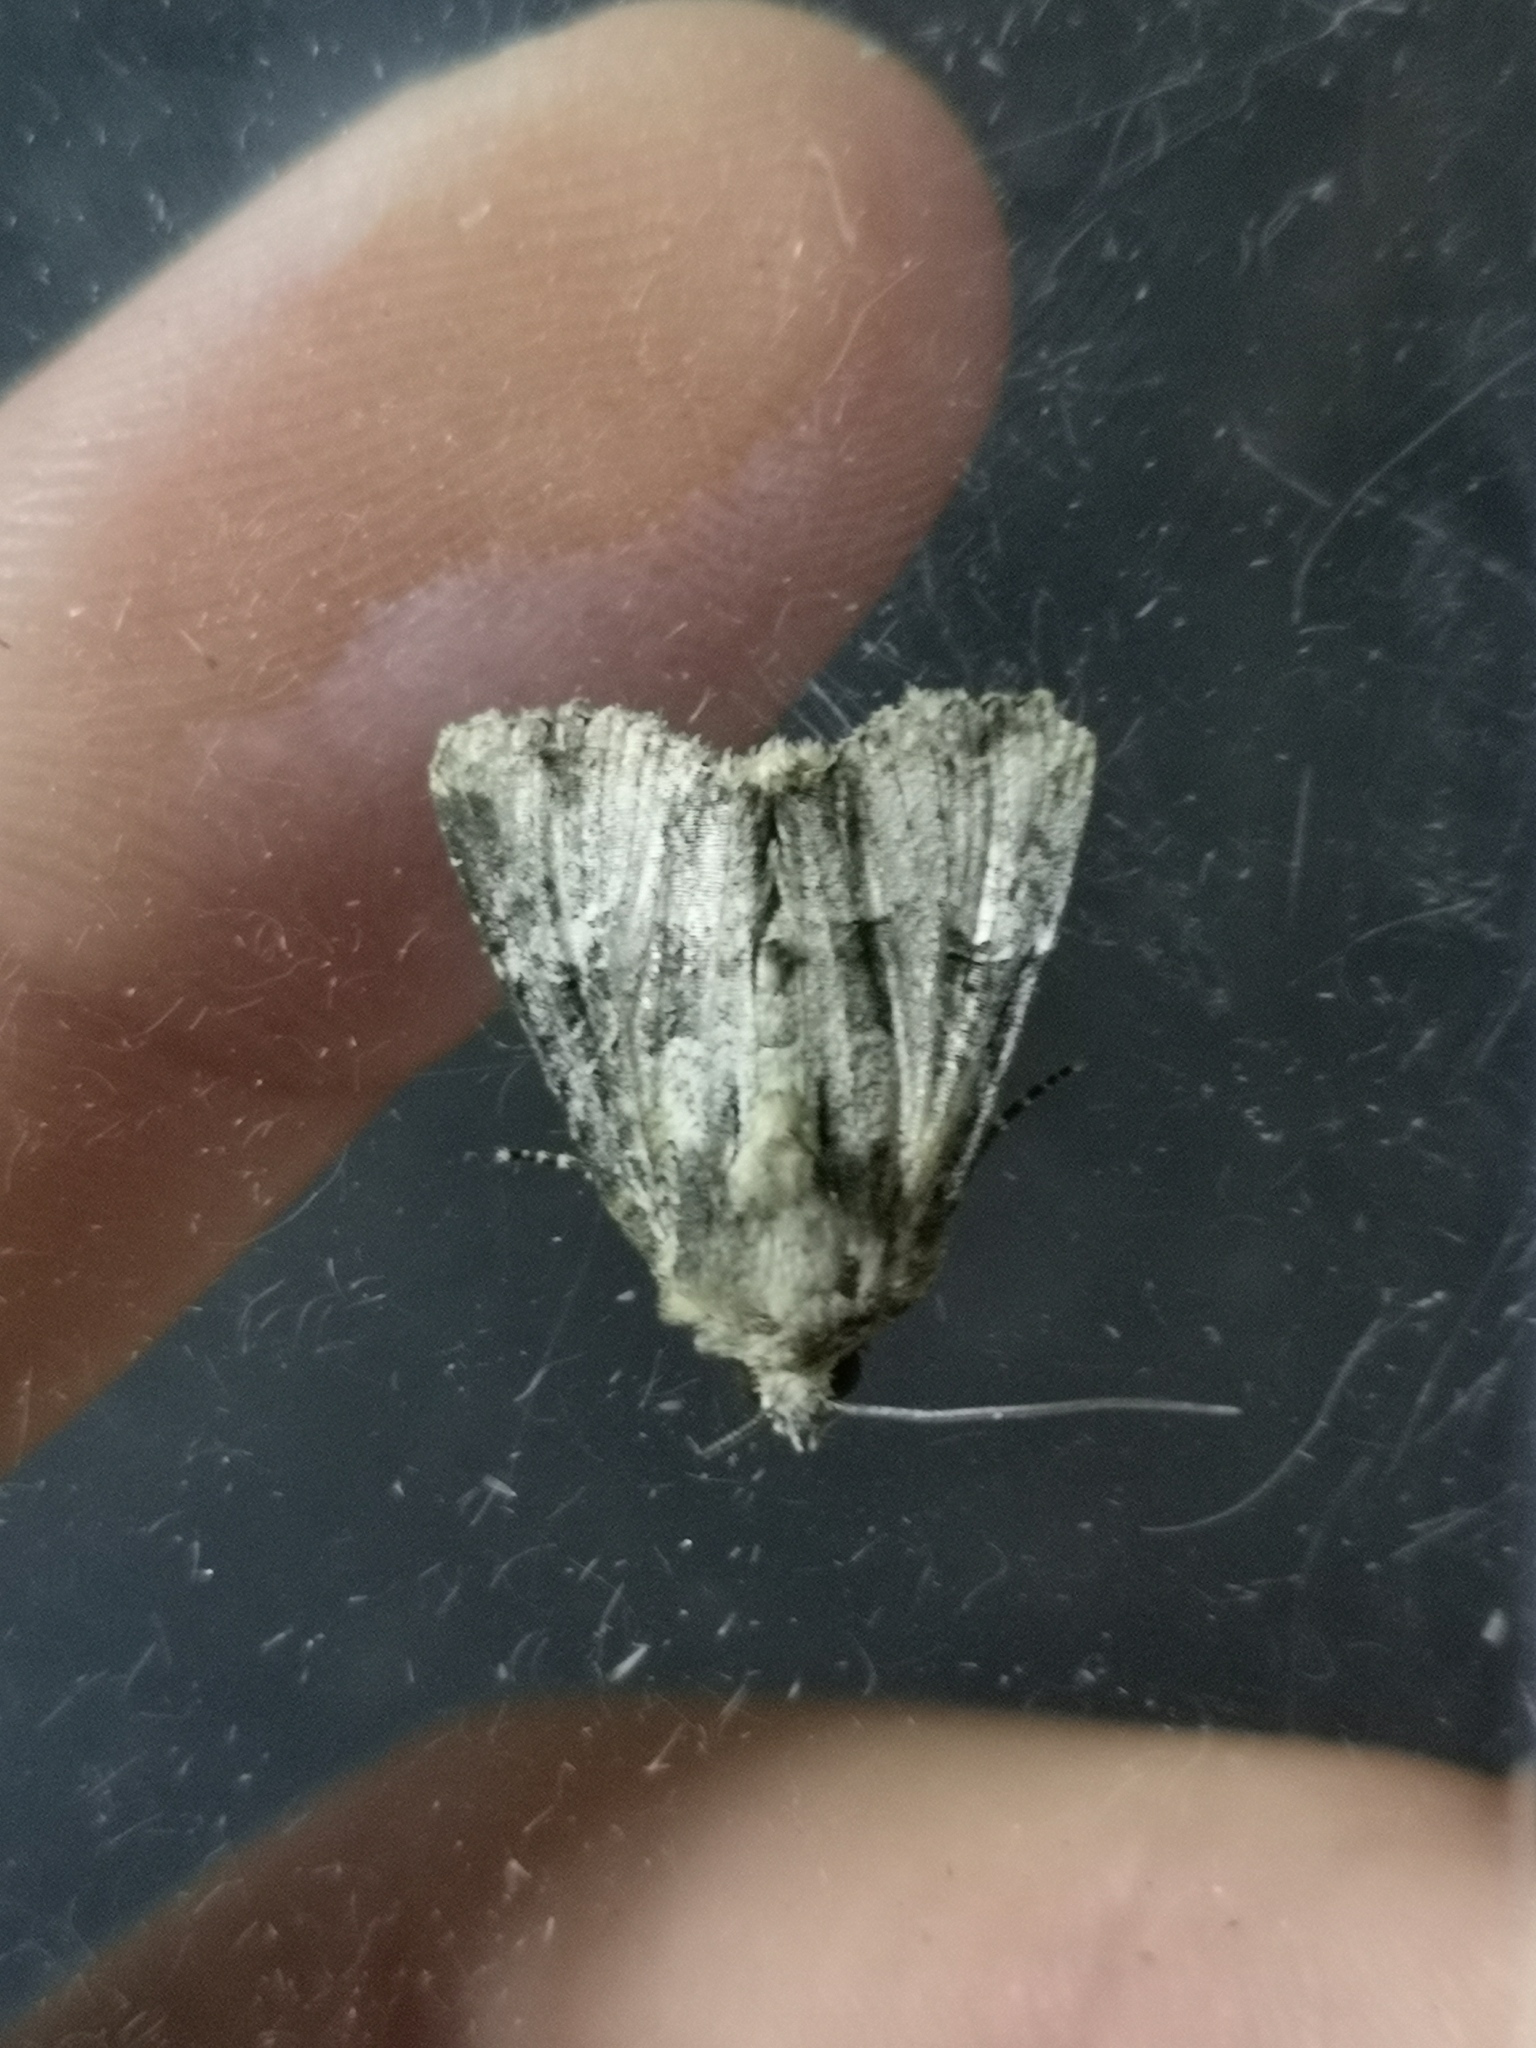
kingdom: Animalia
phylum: Arthropoda
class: Insecta
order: Lepidoptera
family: Noctuidae
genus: Mesapamea
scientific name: Mesapamea
